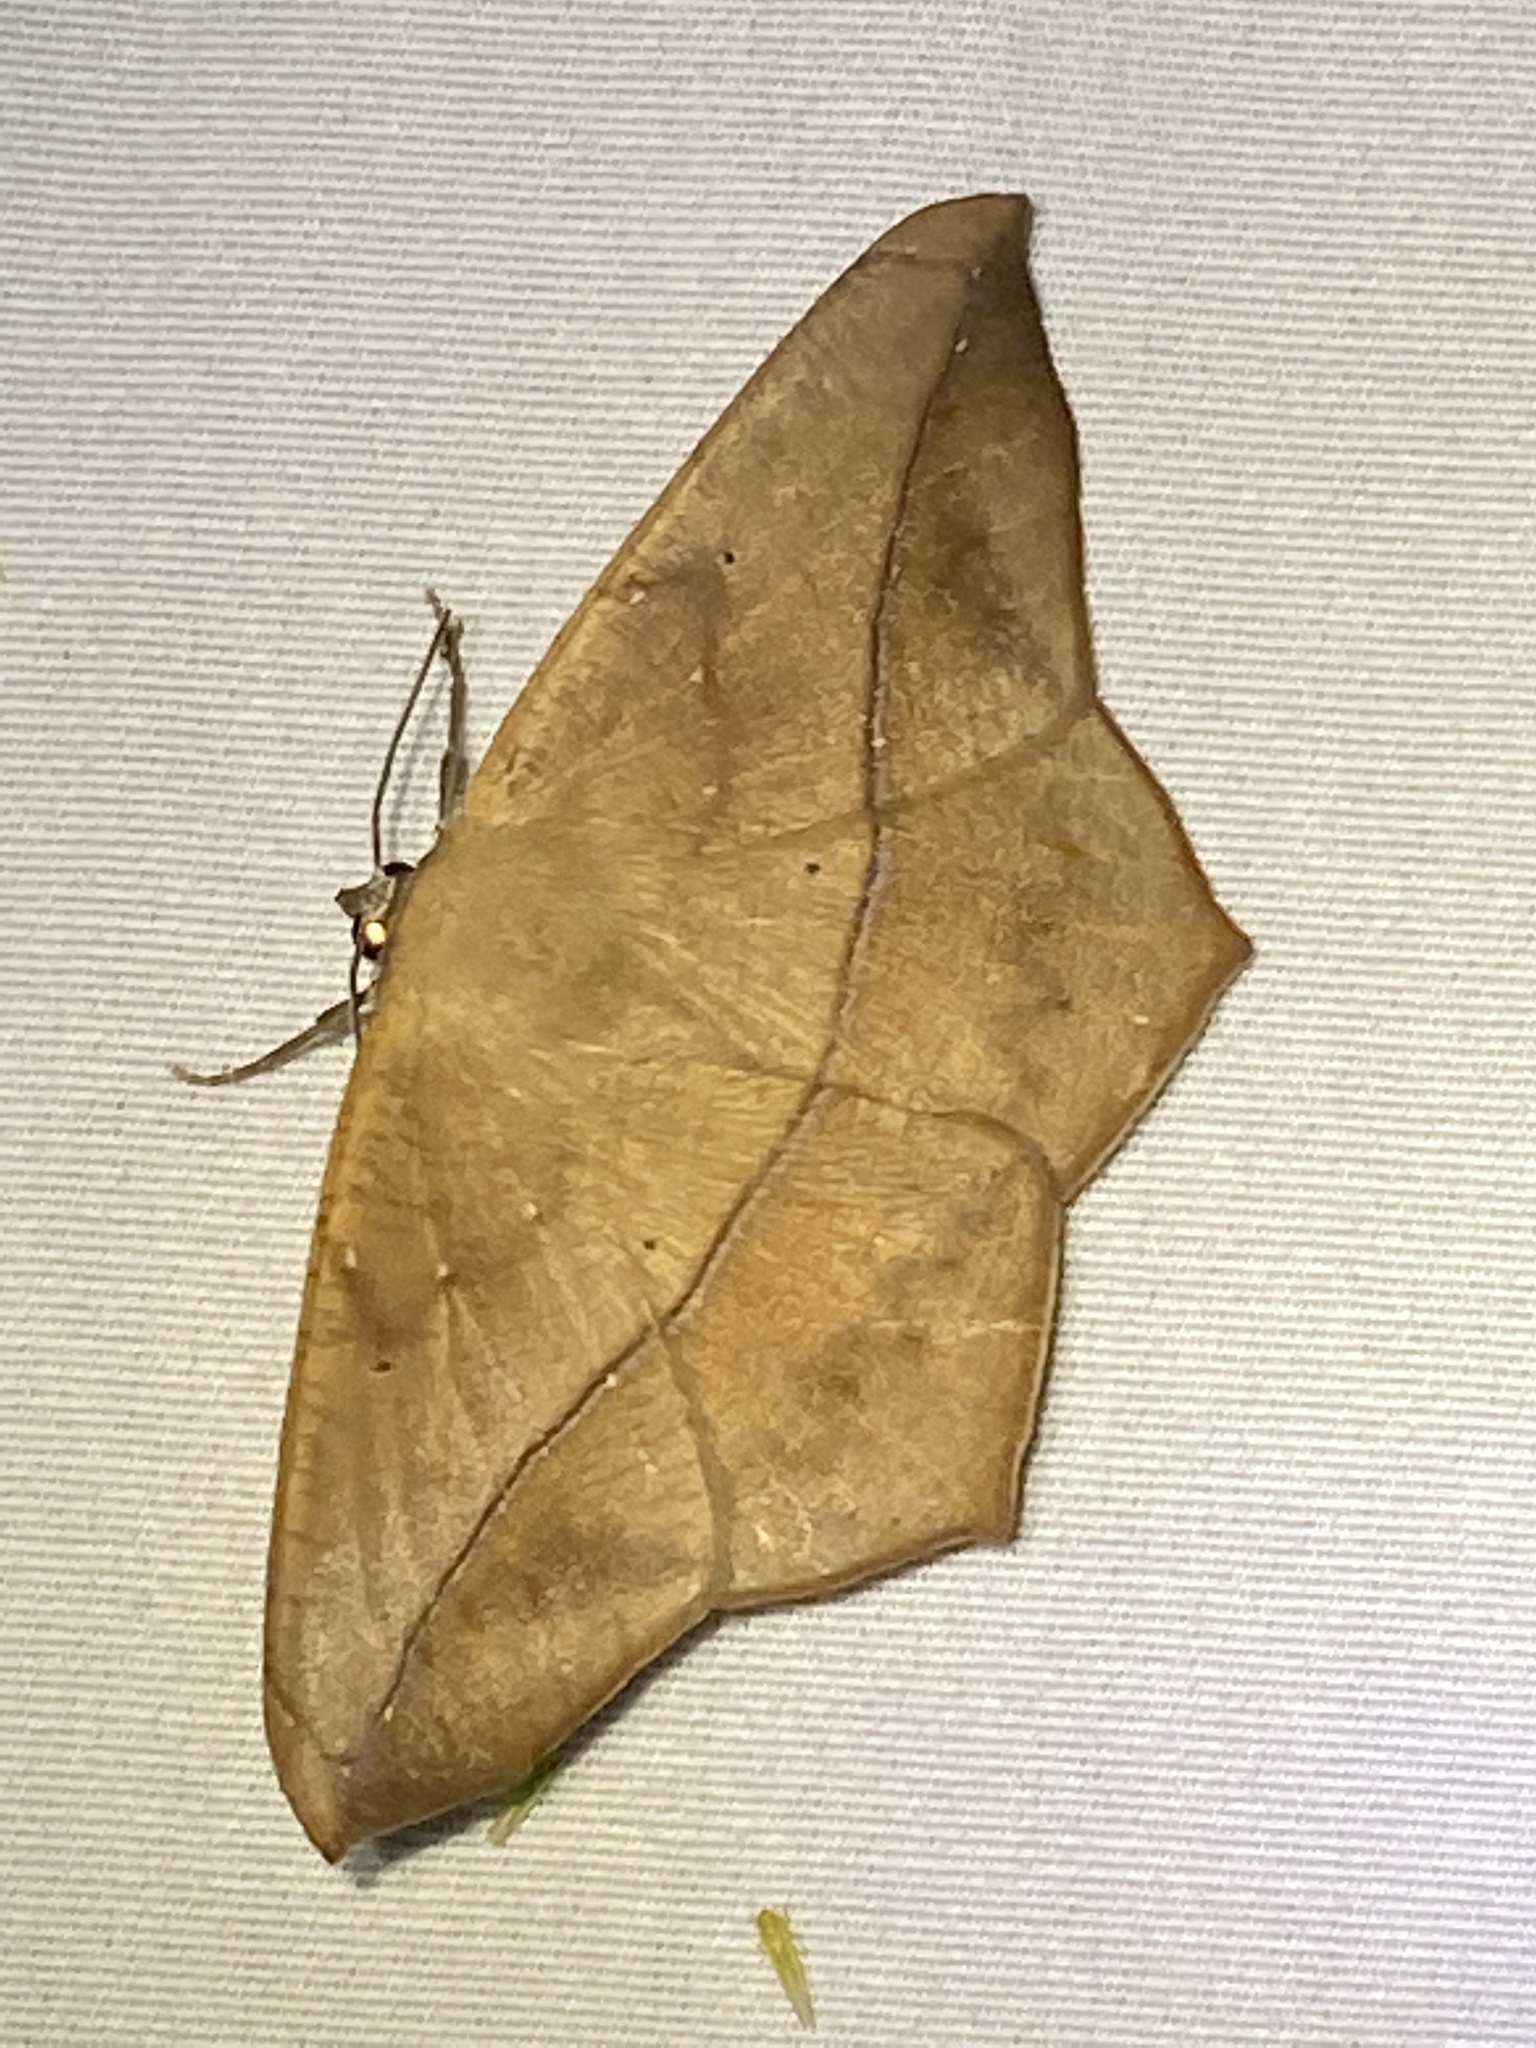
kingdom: Animalia
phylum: Arthropoda
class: Insecta
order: Lepidoptera
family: Geometridae
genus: Prochoerodes
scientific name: Prochoerodes lineola
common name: Large maple spanworm
